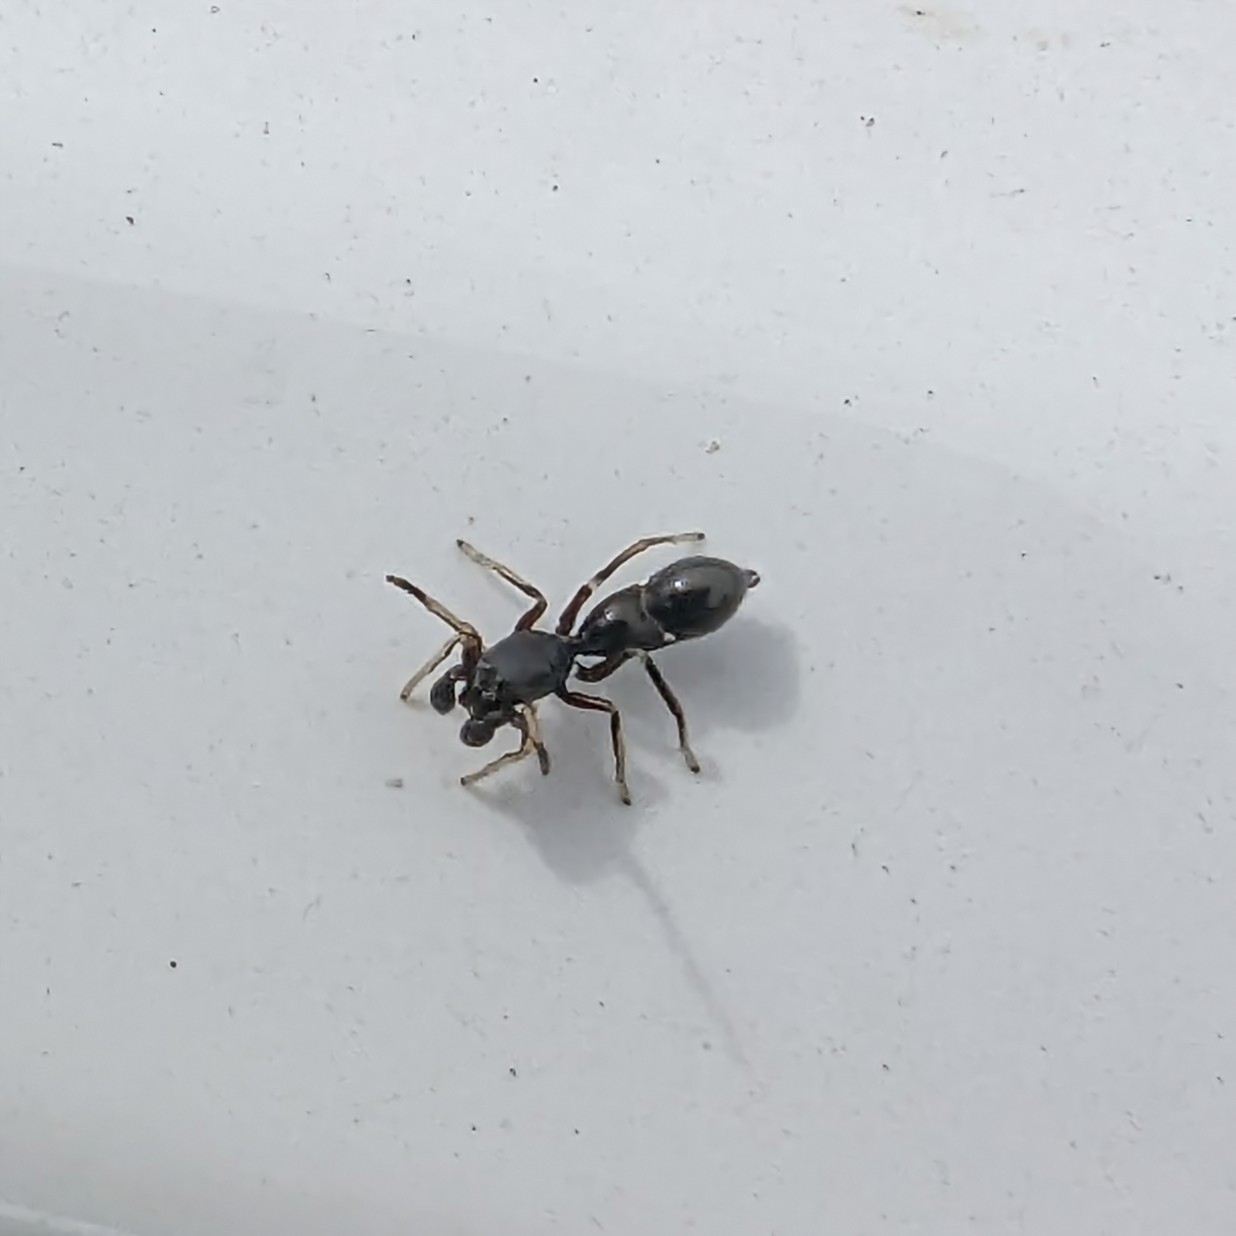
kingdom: Animalia
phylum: Arthropoda
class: Arachnida
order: Araneae
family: Salticidae
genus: Synageles
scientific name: Synageles venator
